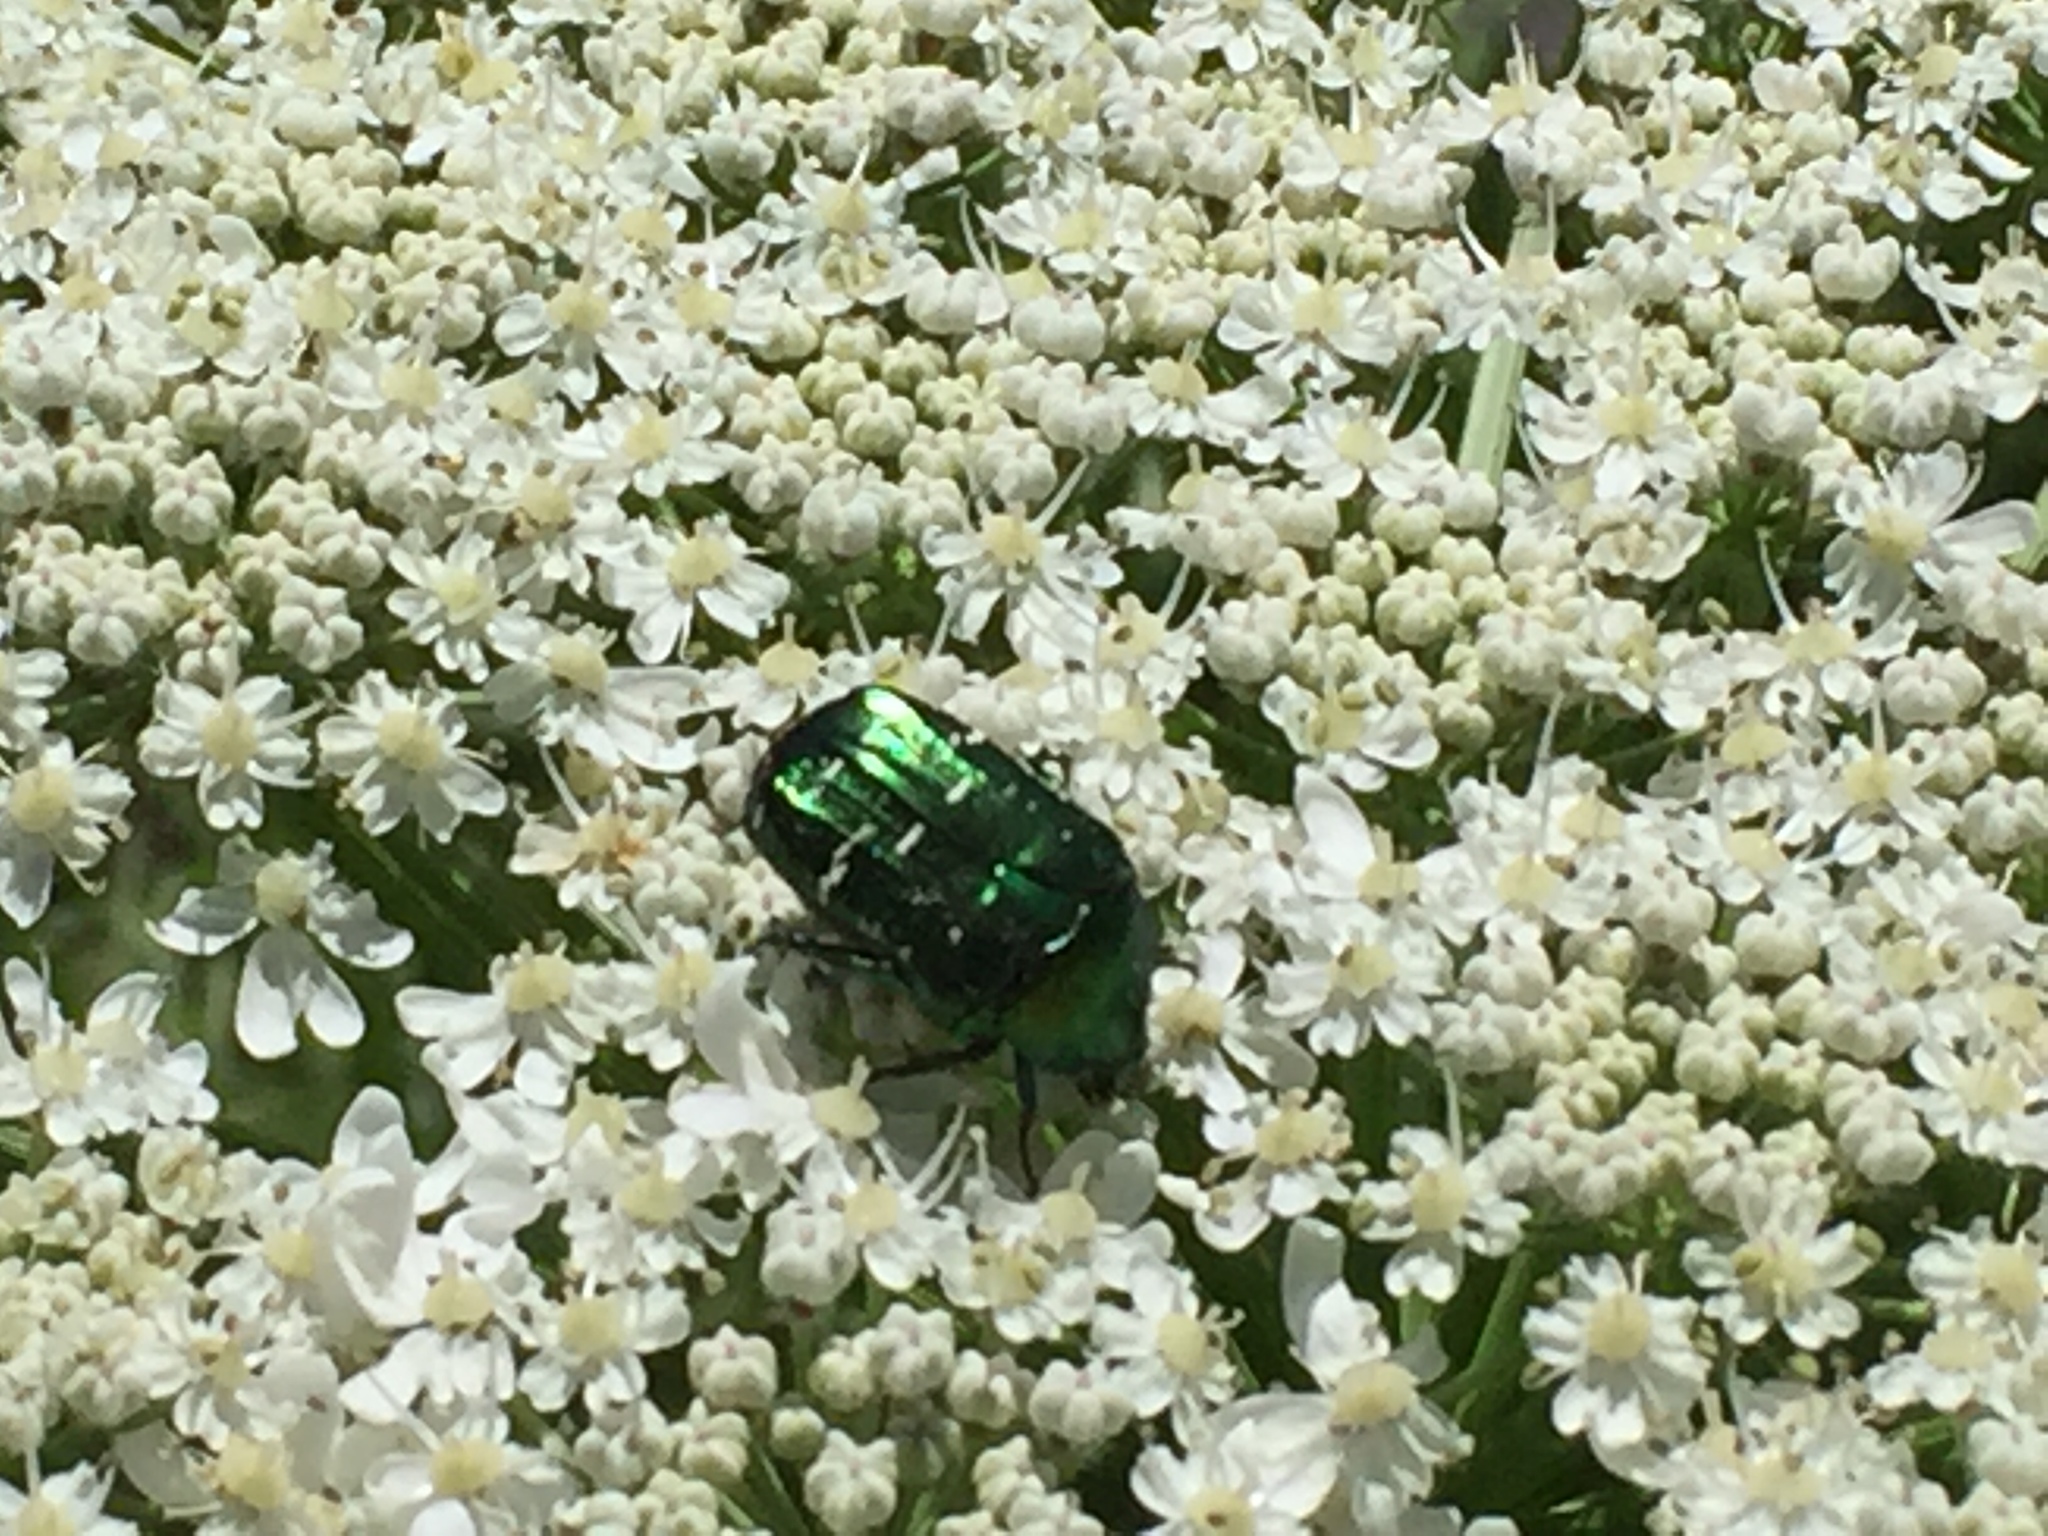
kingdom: Animalia
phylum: Arthropoda
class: Insecta
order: Coleoptera
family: Scarabaeidae
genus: Cetonia
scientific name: Cetonia aurata
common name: Rose chafer
